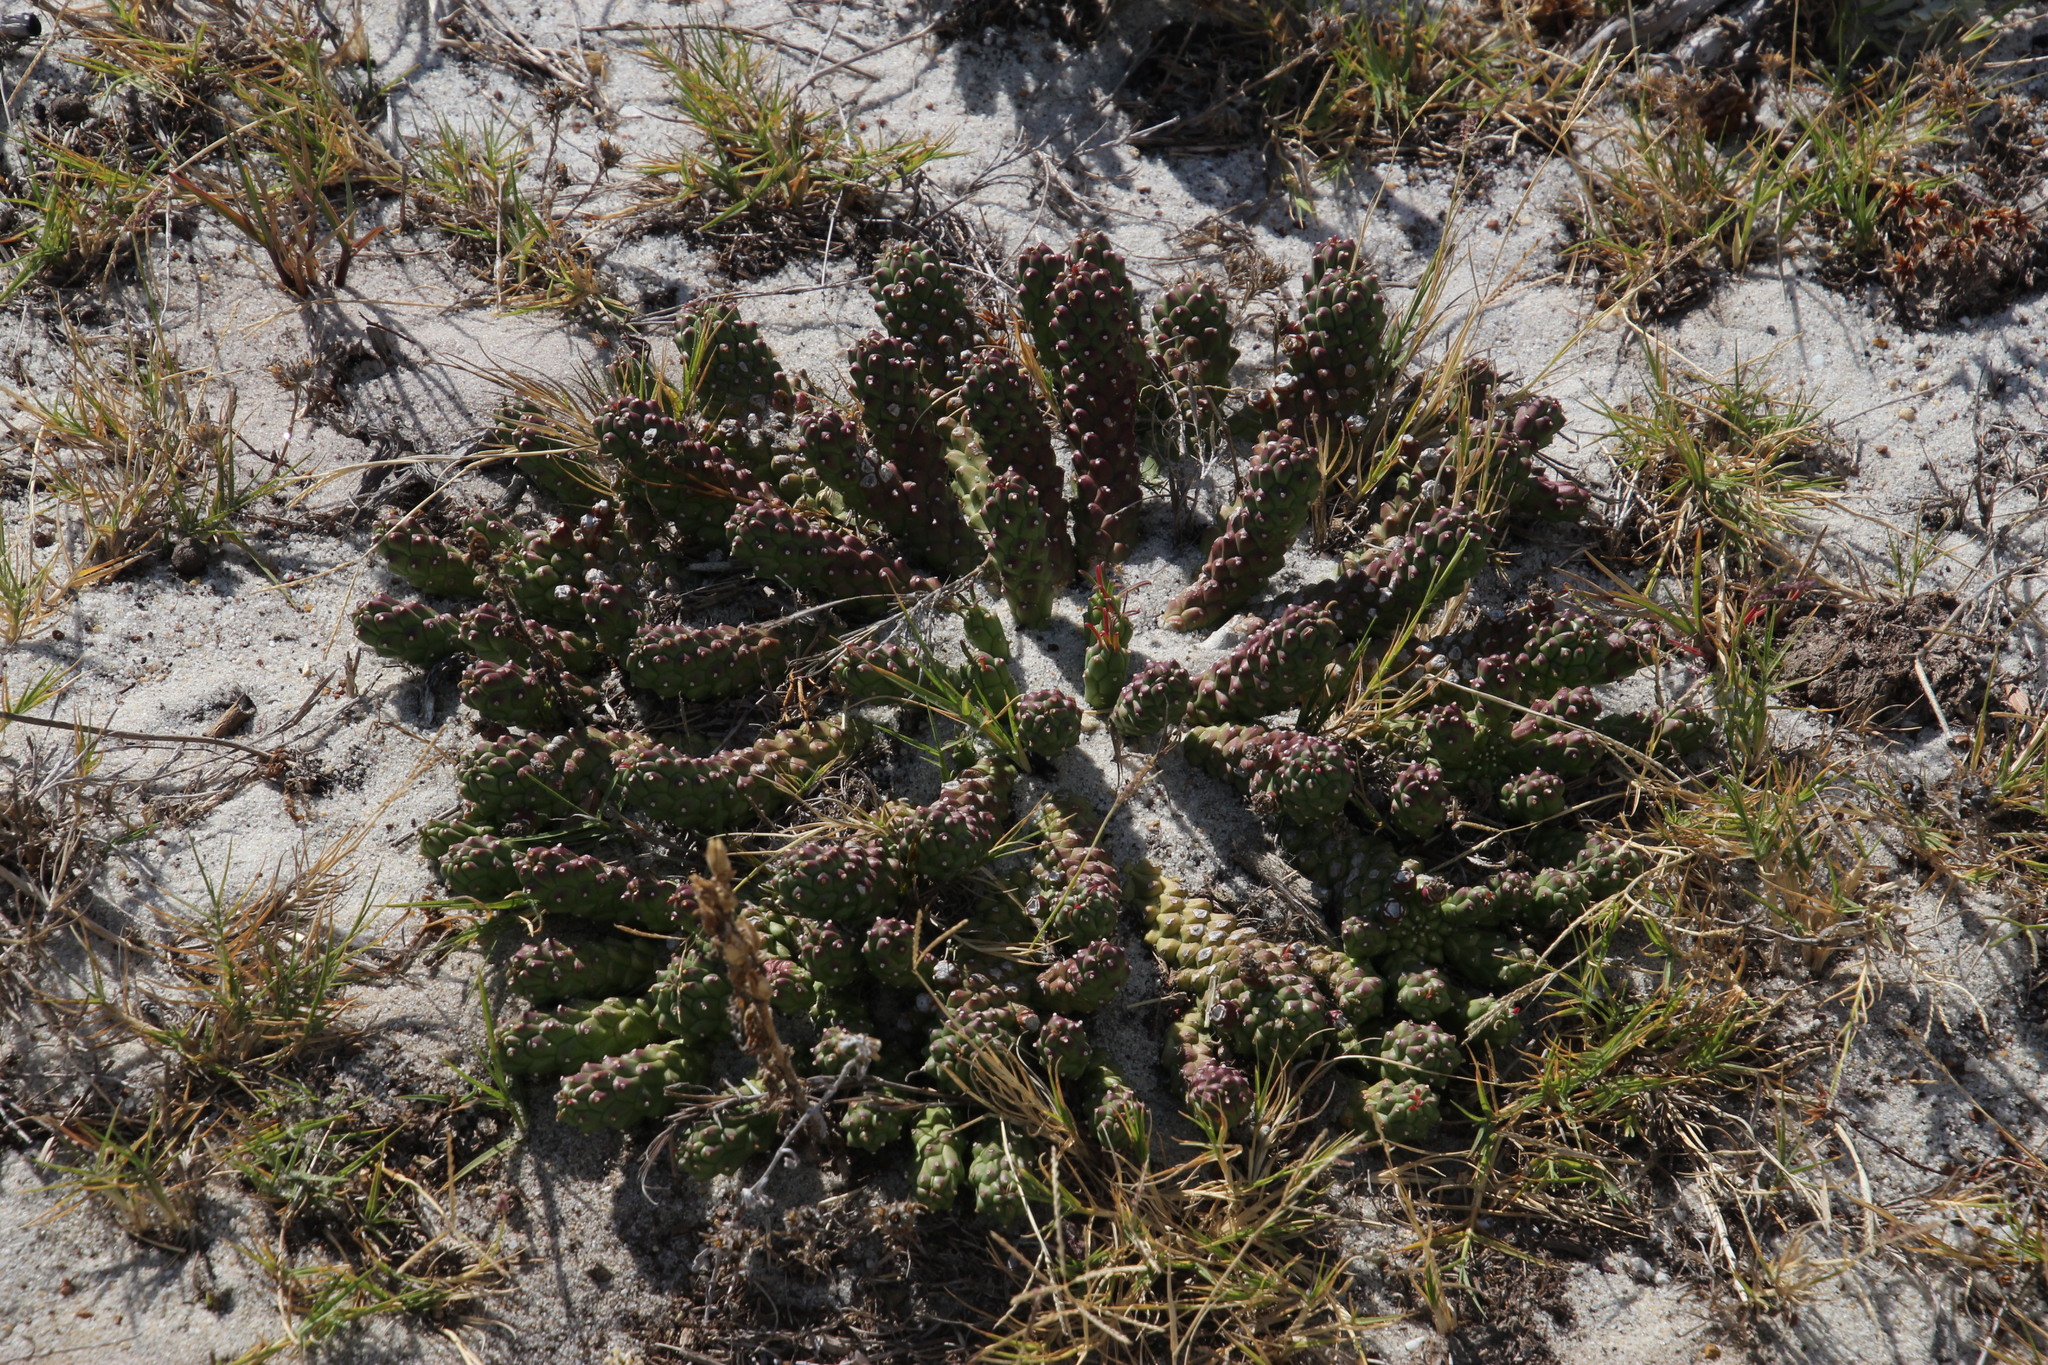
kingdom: Plantae
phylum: Tracheophyta
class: Magnoliopsida
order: Malpighiales
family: Euphorbiaceae
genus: Euphorbia
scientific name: Euphorbia caput-medusae
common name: Medusa's-head
